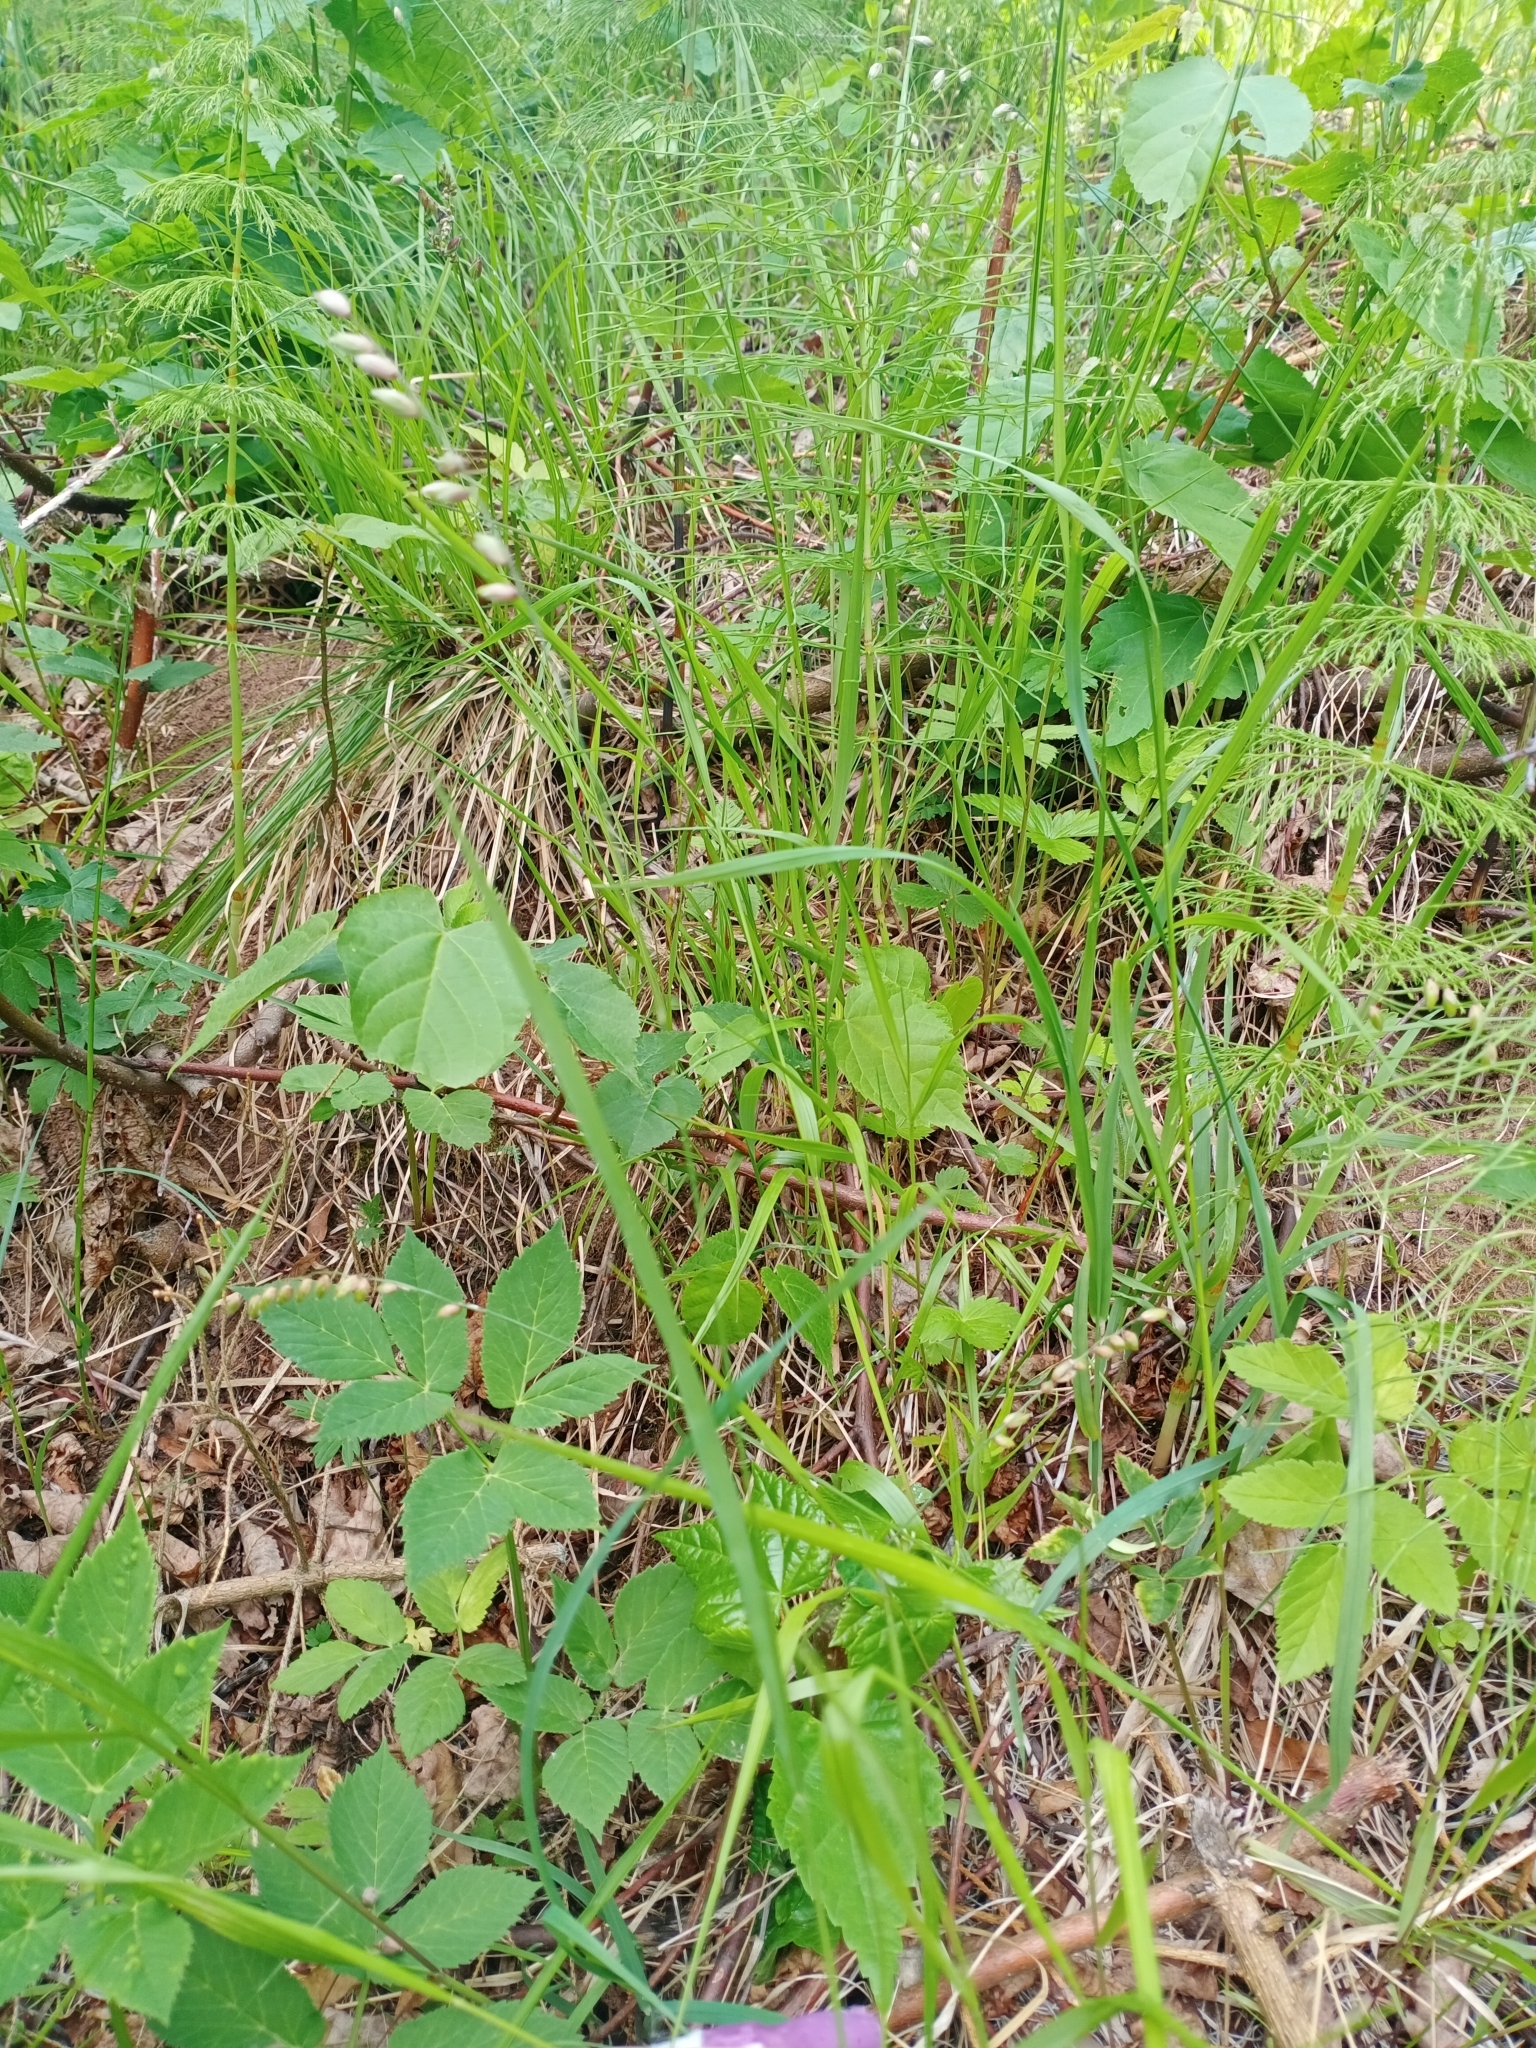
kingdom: Plantae
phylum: Tracheophyta
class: Liliopsida
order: Poales
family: Poaceae
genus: Melica
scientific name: Melica nutans
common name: Mountain melick
